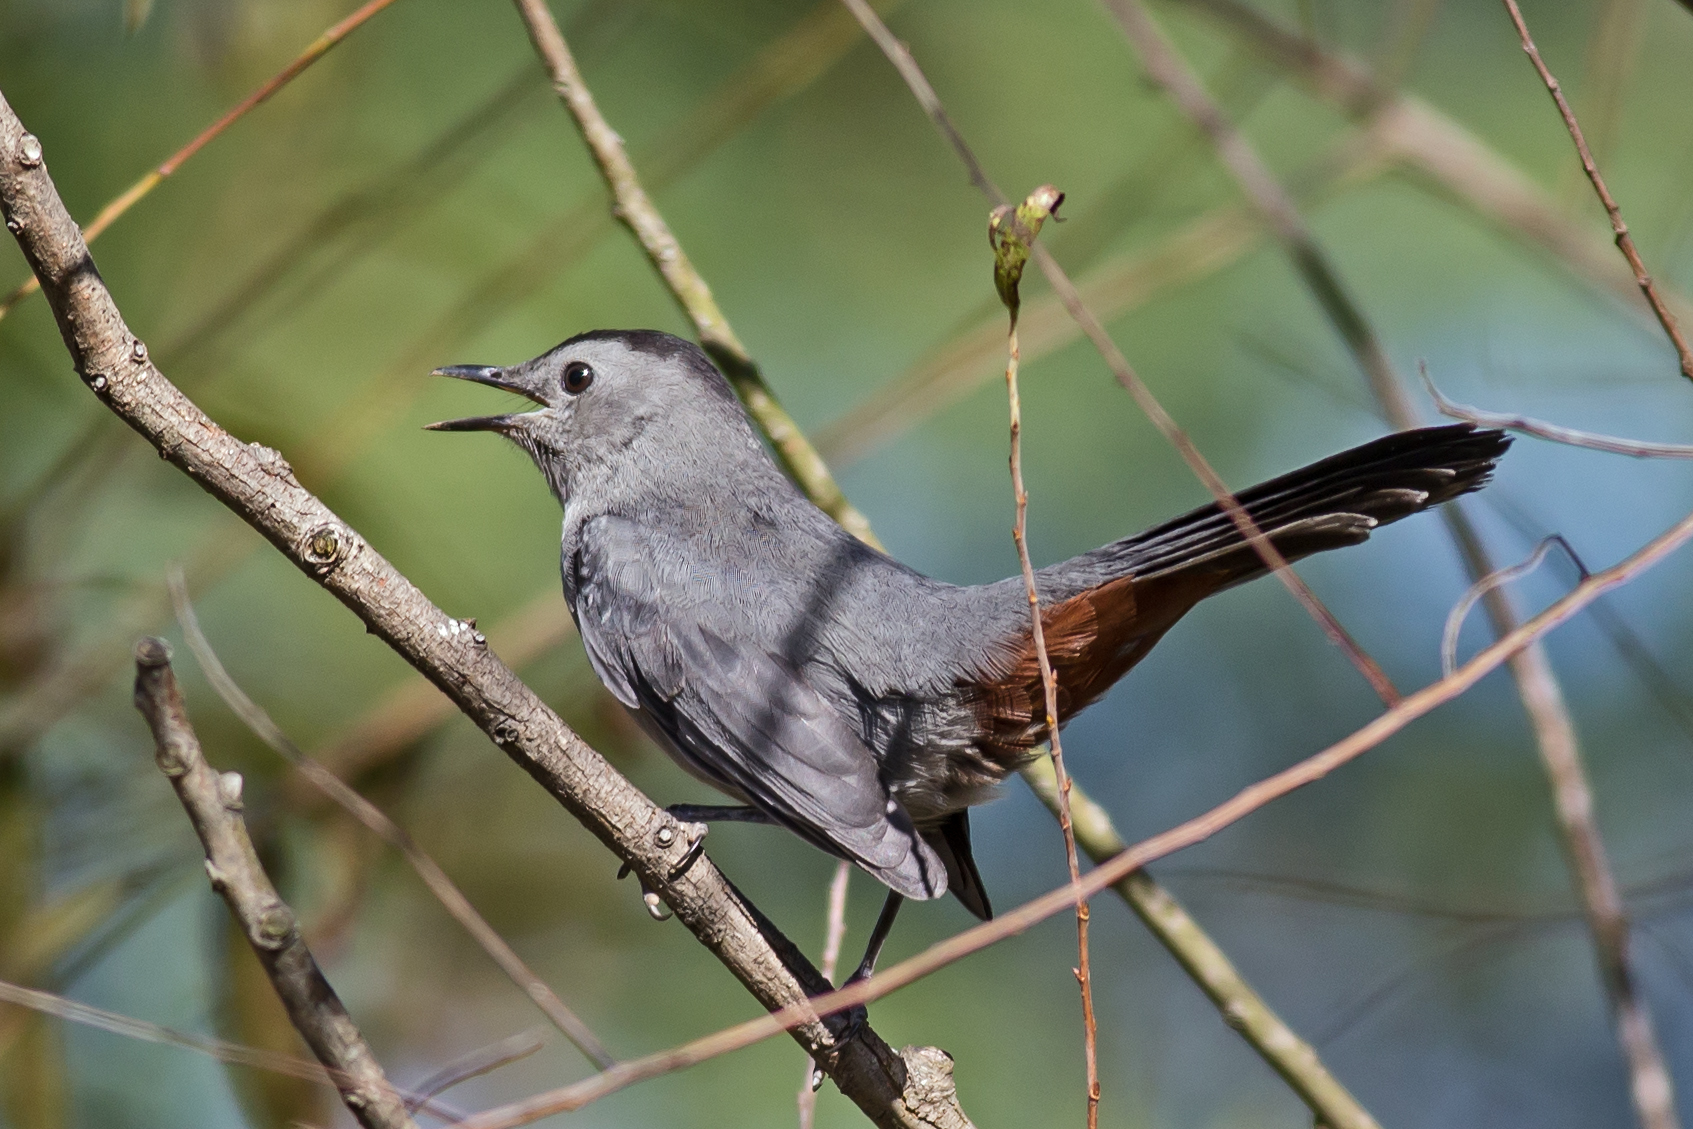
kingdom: Animalia
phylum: Chordata
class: Aves
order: Passeriformes
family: Mimidae
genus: Dumetella
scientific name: Dumetella carolinensis
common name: Gray catbird
